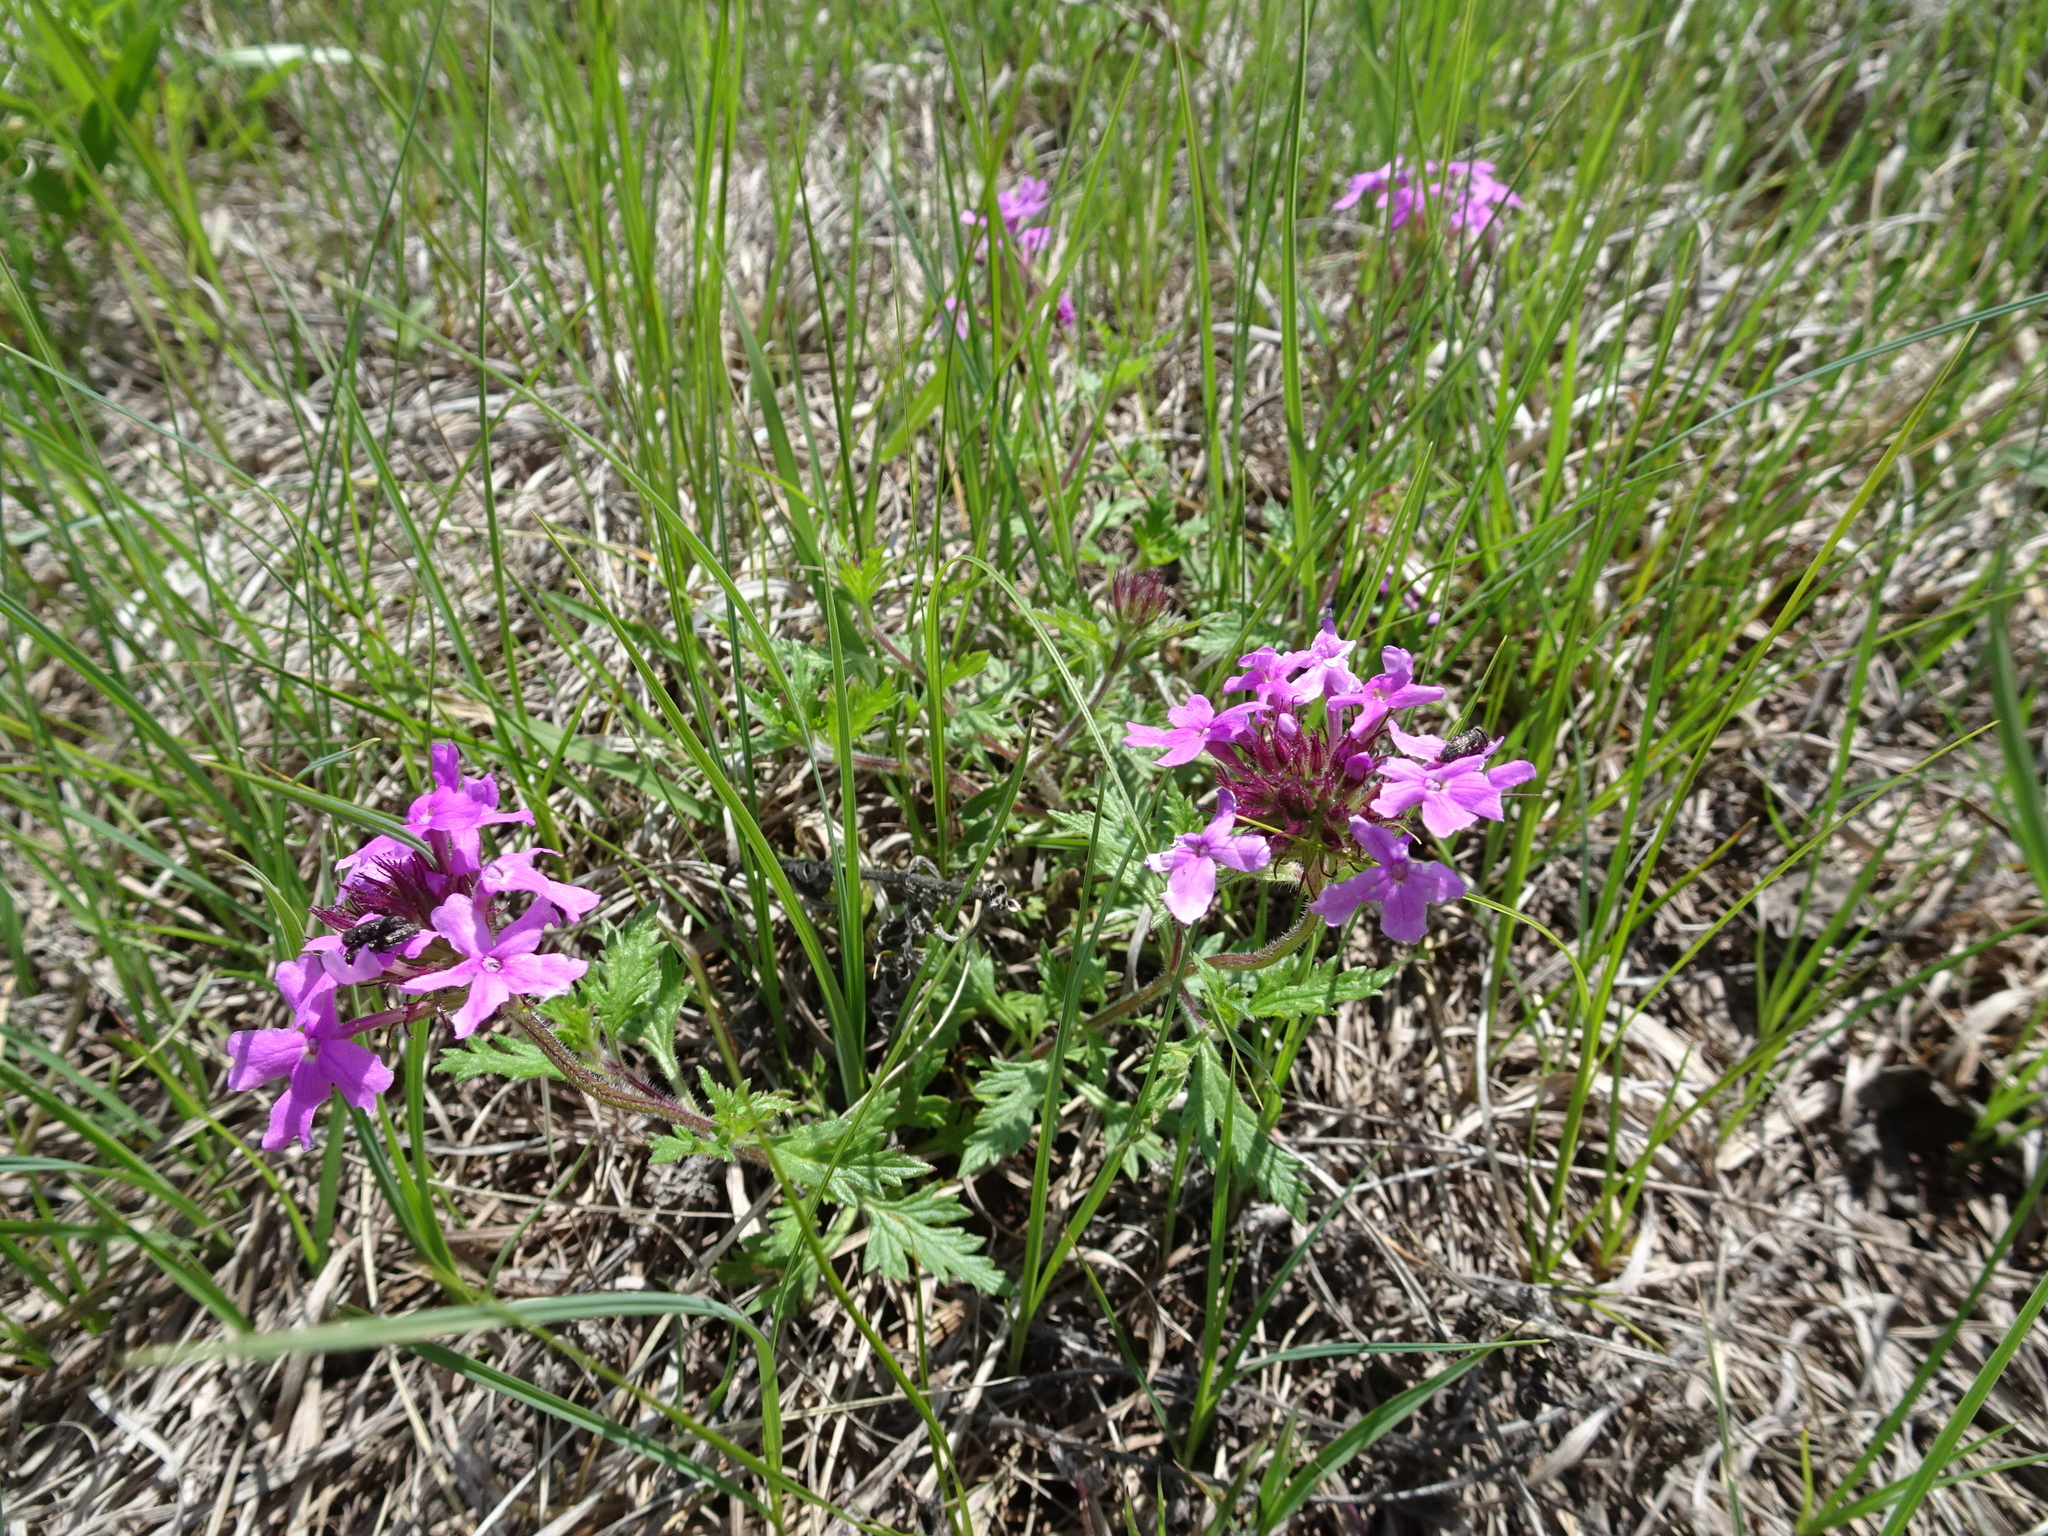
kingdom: Plantae
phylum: Tracheophyta
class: Magnoliopsida
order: Lamiales
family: Verbenaceae
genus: Verbena
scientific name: Verbena canadensis
